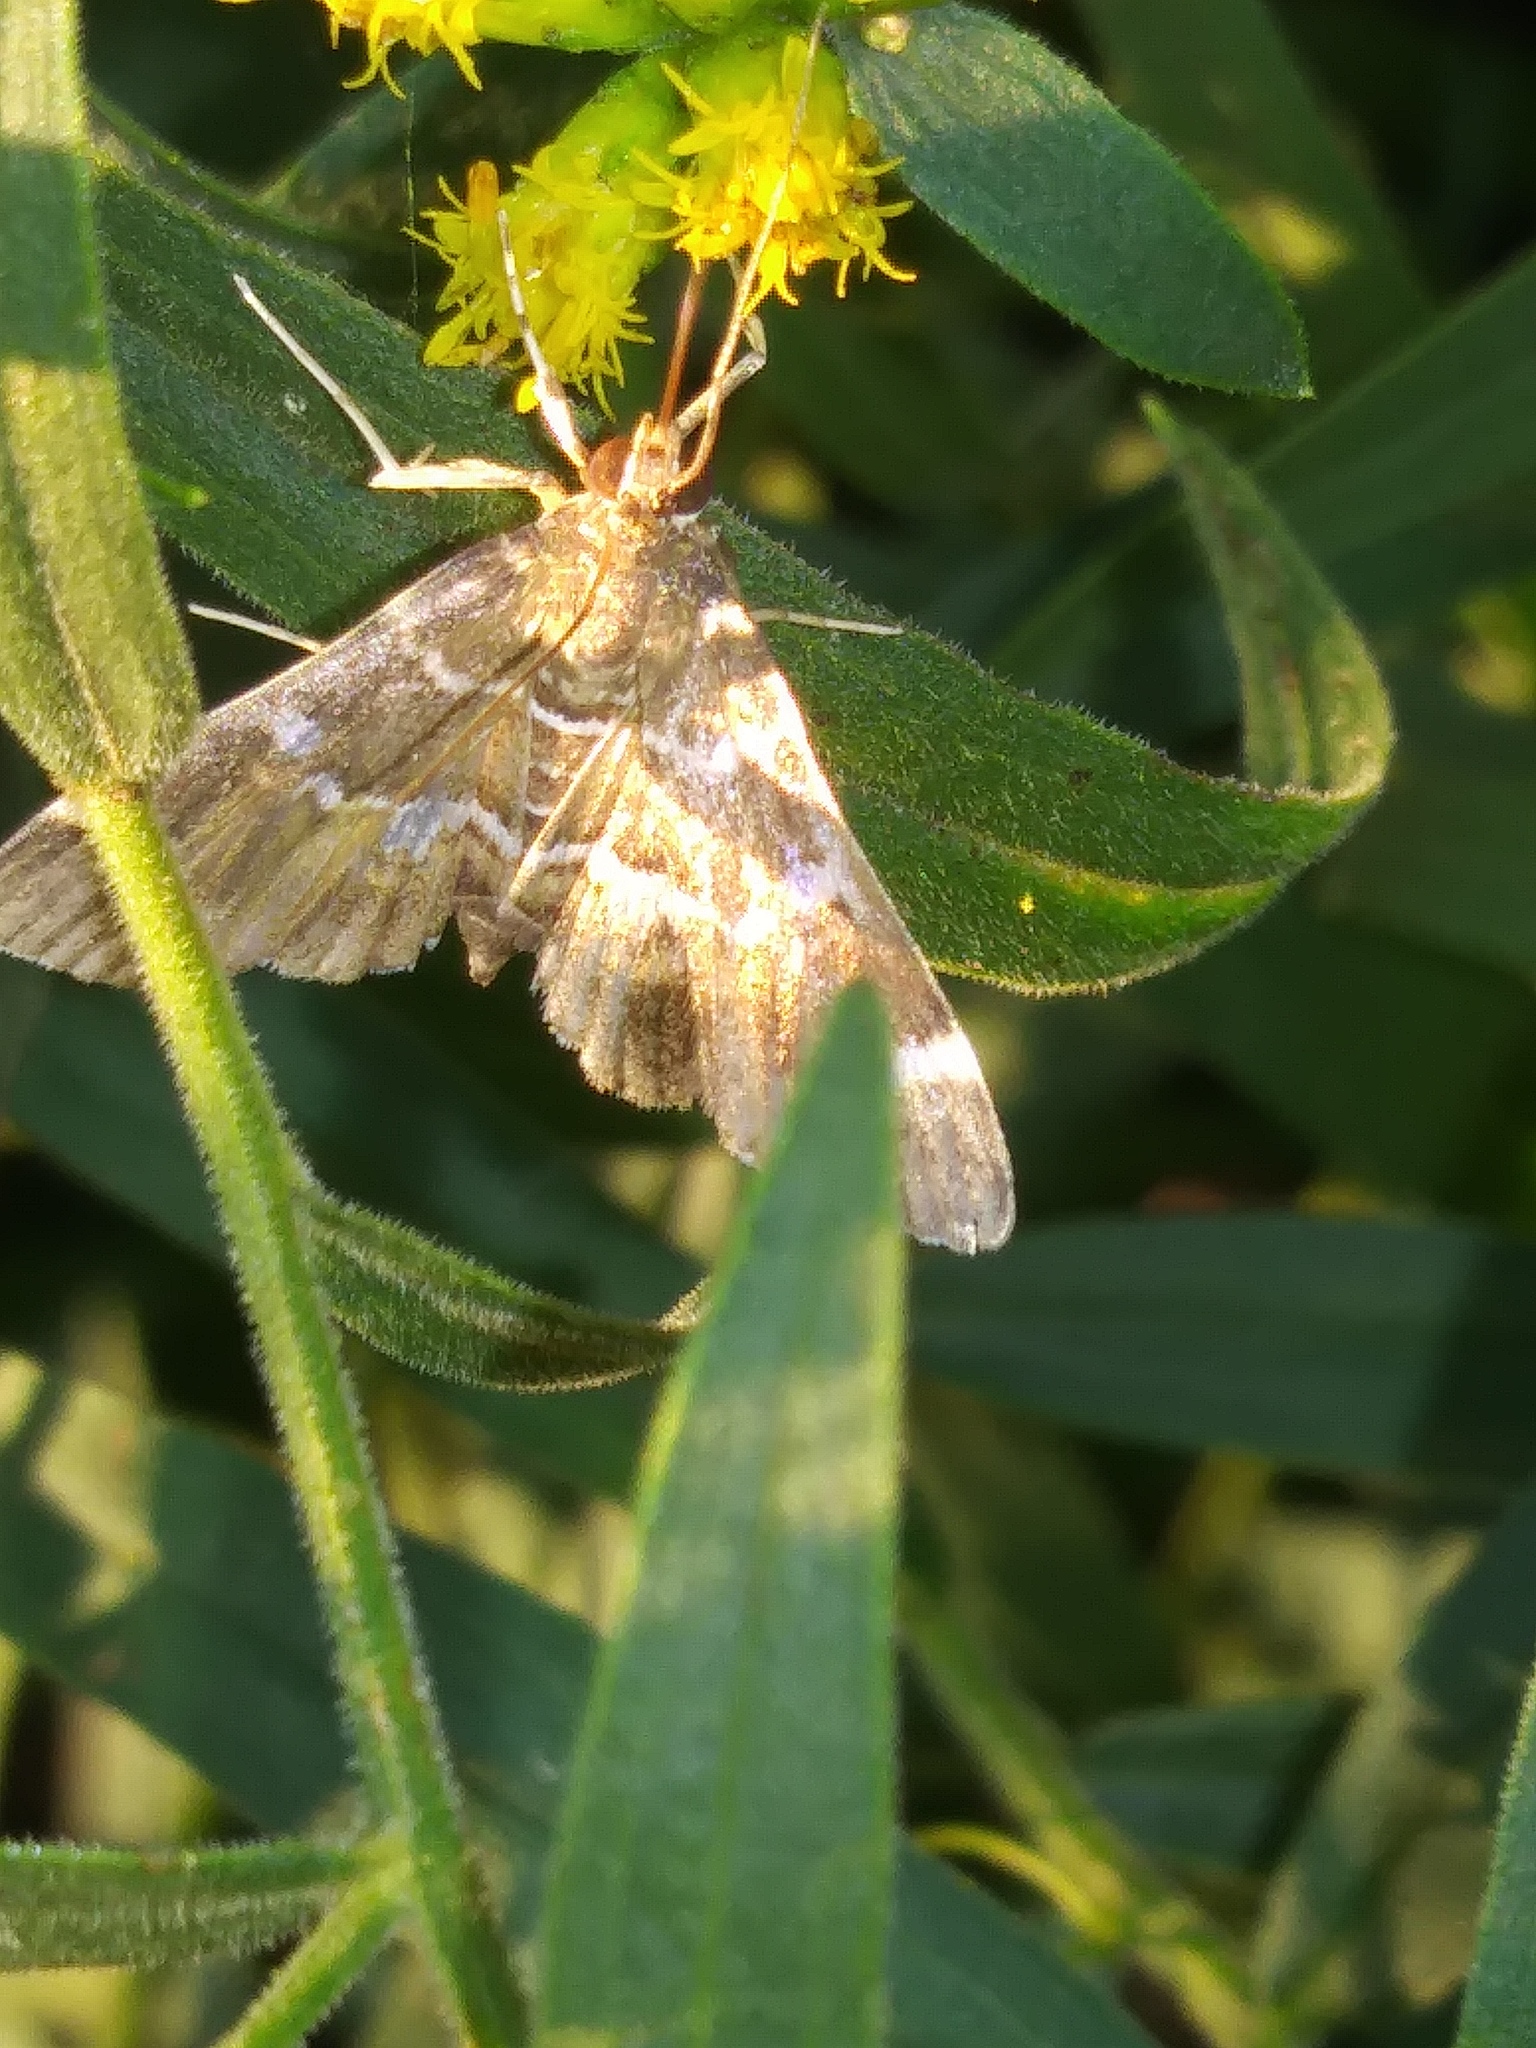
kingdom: Animalia
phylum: Arthropoda
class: Insecta
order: Lepidoptera
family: Crambidae
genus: Hymenia
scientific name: Hymenia perspectalis
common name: Spotted beet webworm
